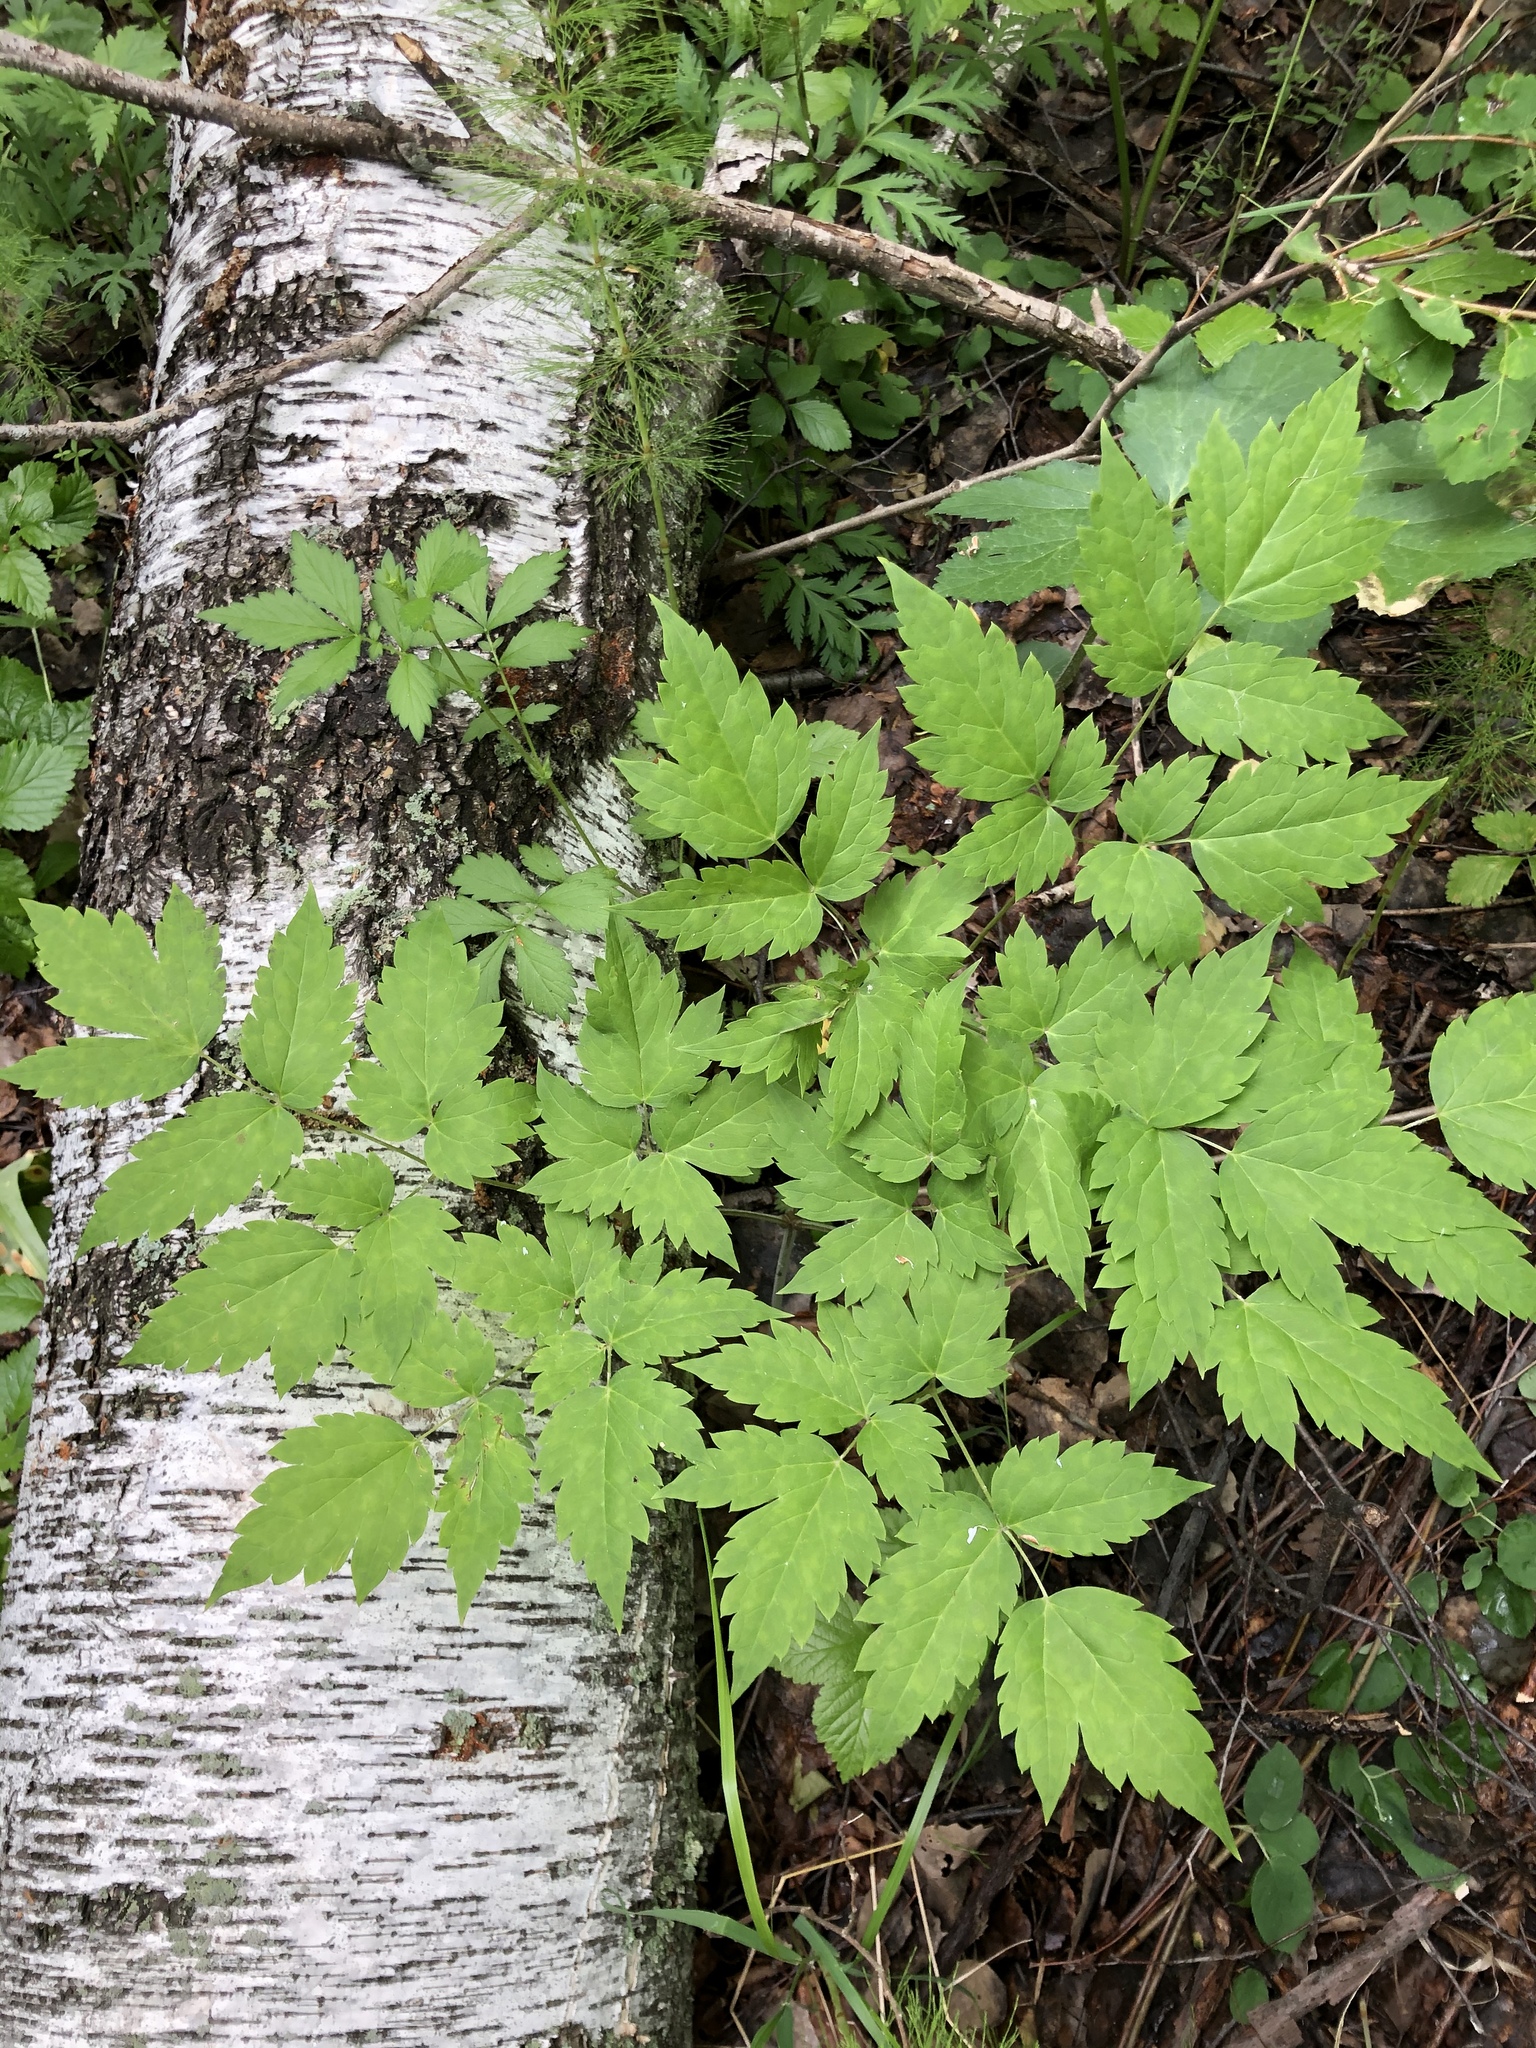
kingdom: Plantae
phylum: Tracheophyta
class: Magnoliopsida
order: Ranunculales
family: Ranunculaceae
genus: Actaea
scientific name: Actaea erythrocarpa
